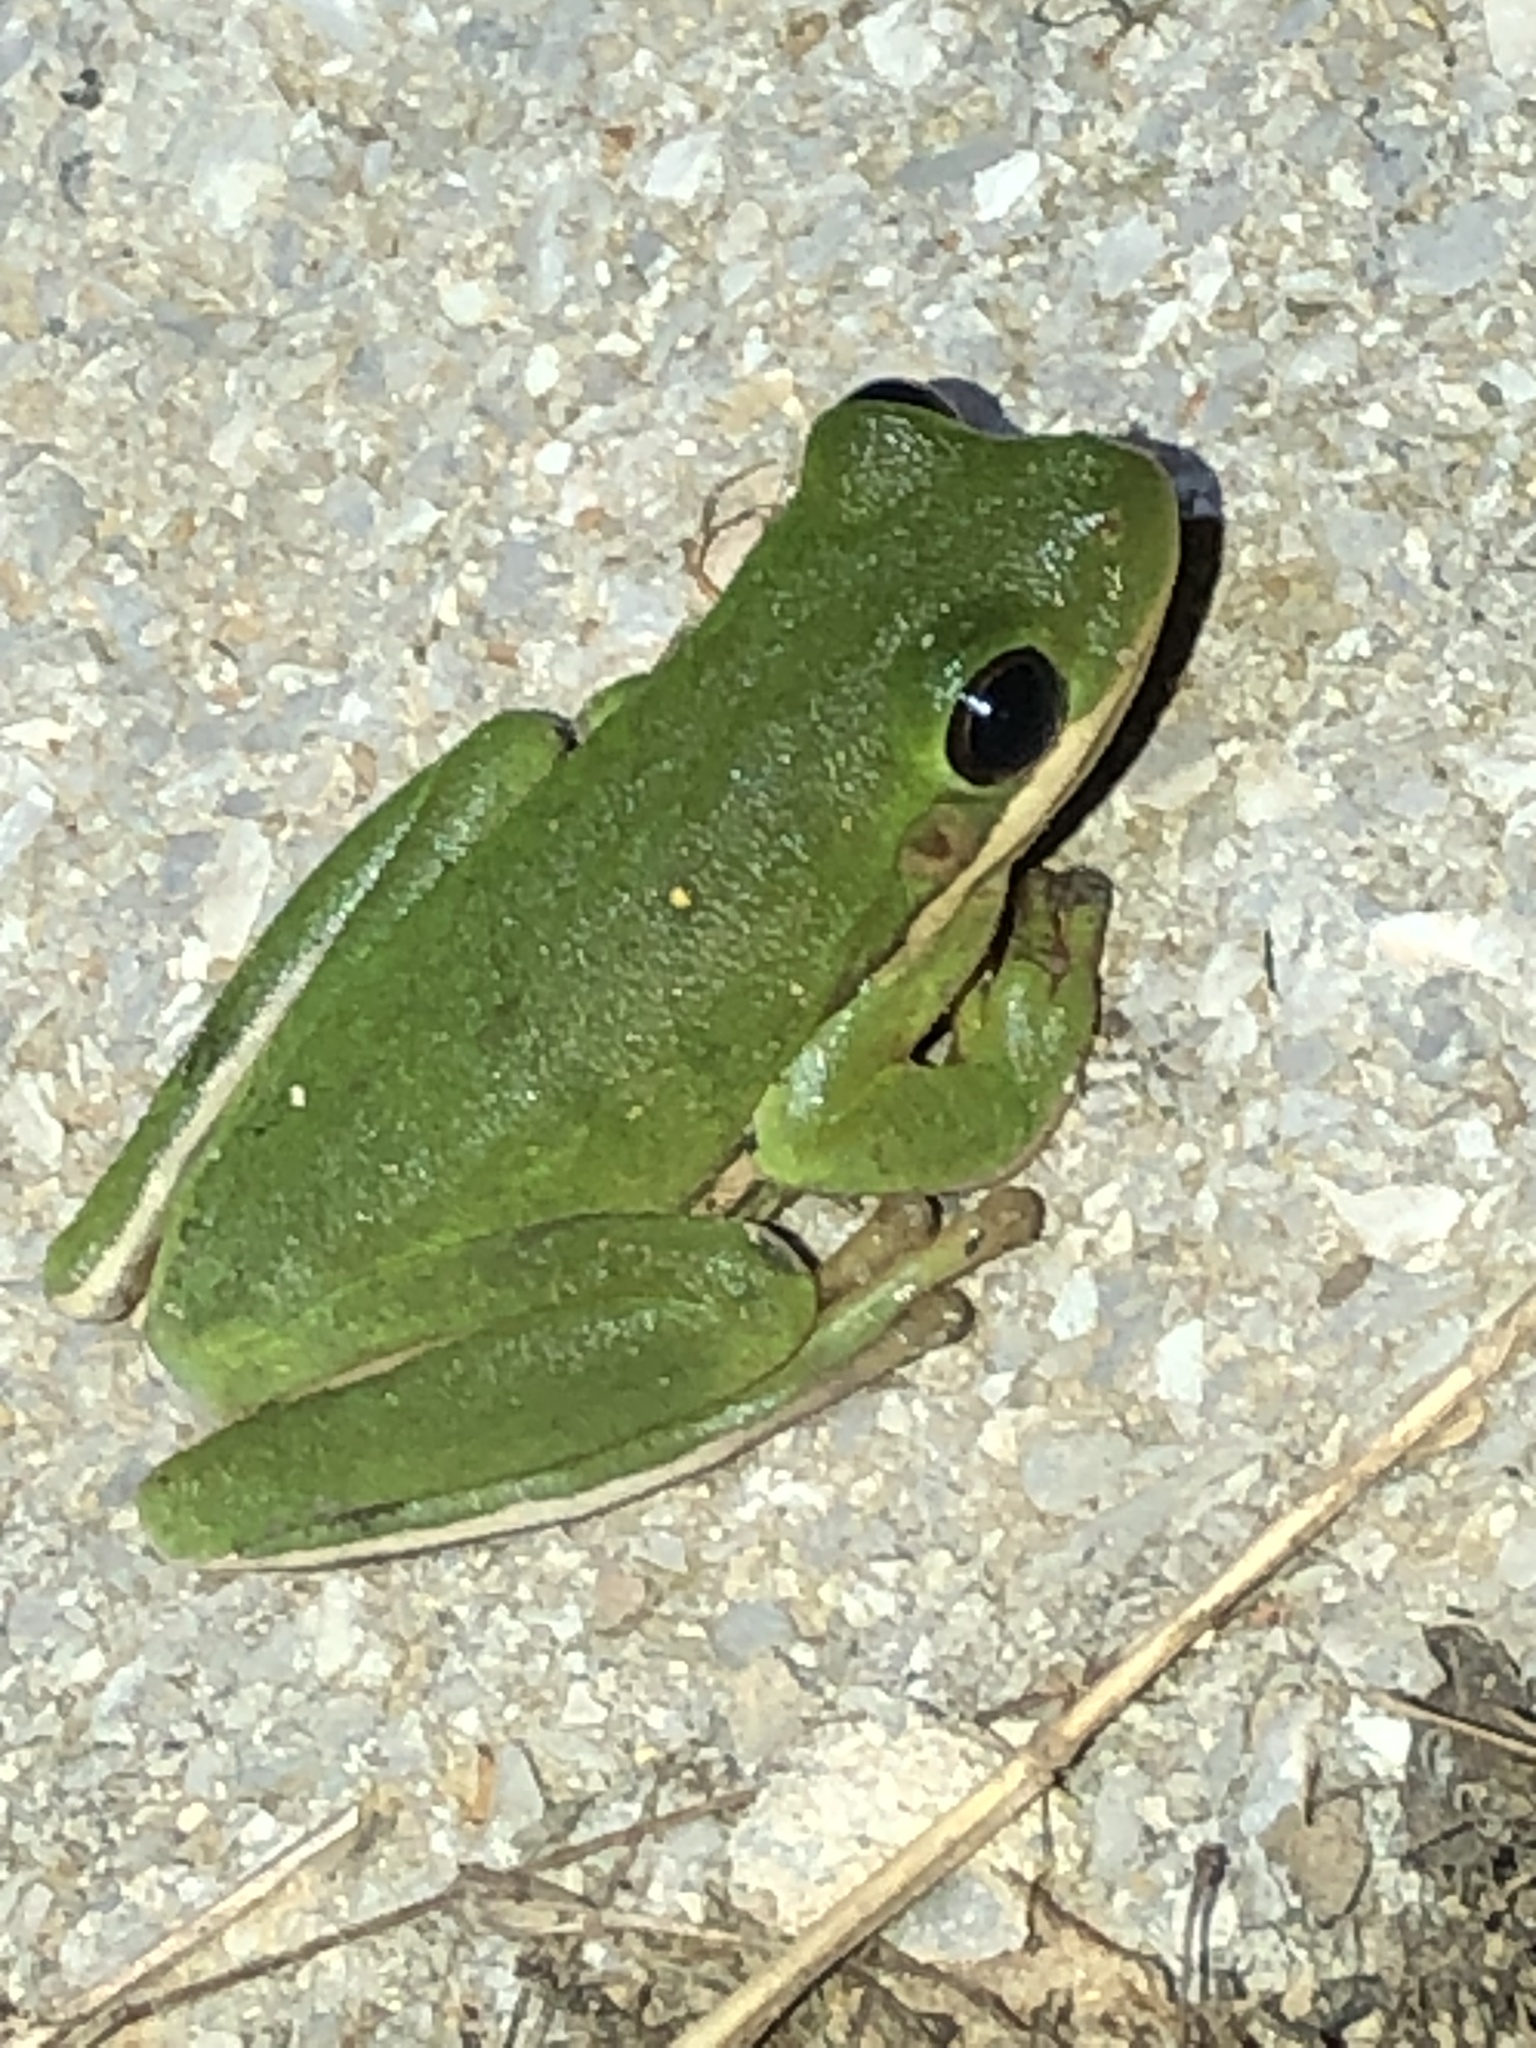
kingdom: Animalia
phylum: Chordata
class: Amphibia
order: Anura
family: Hylidae
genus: Dryophytes
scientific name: Dryophytes cinereus
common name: Green treefrog
